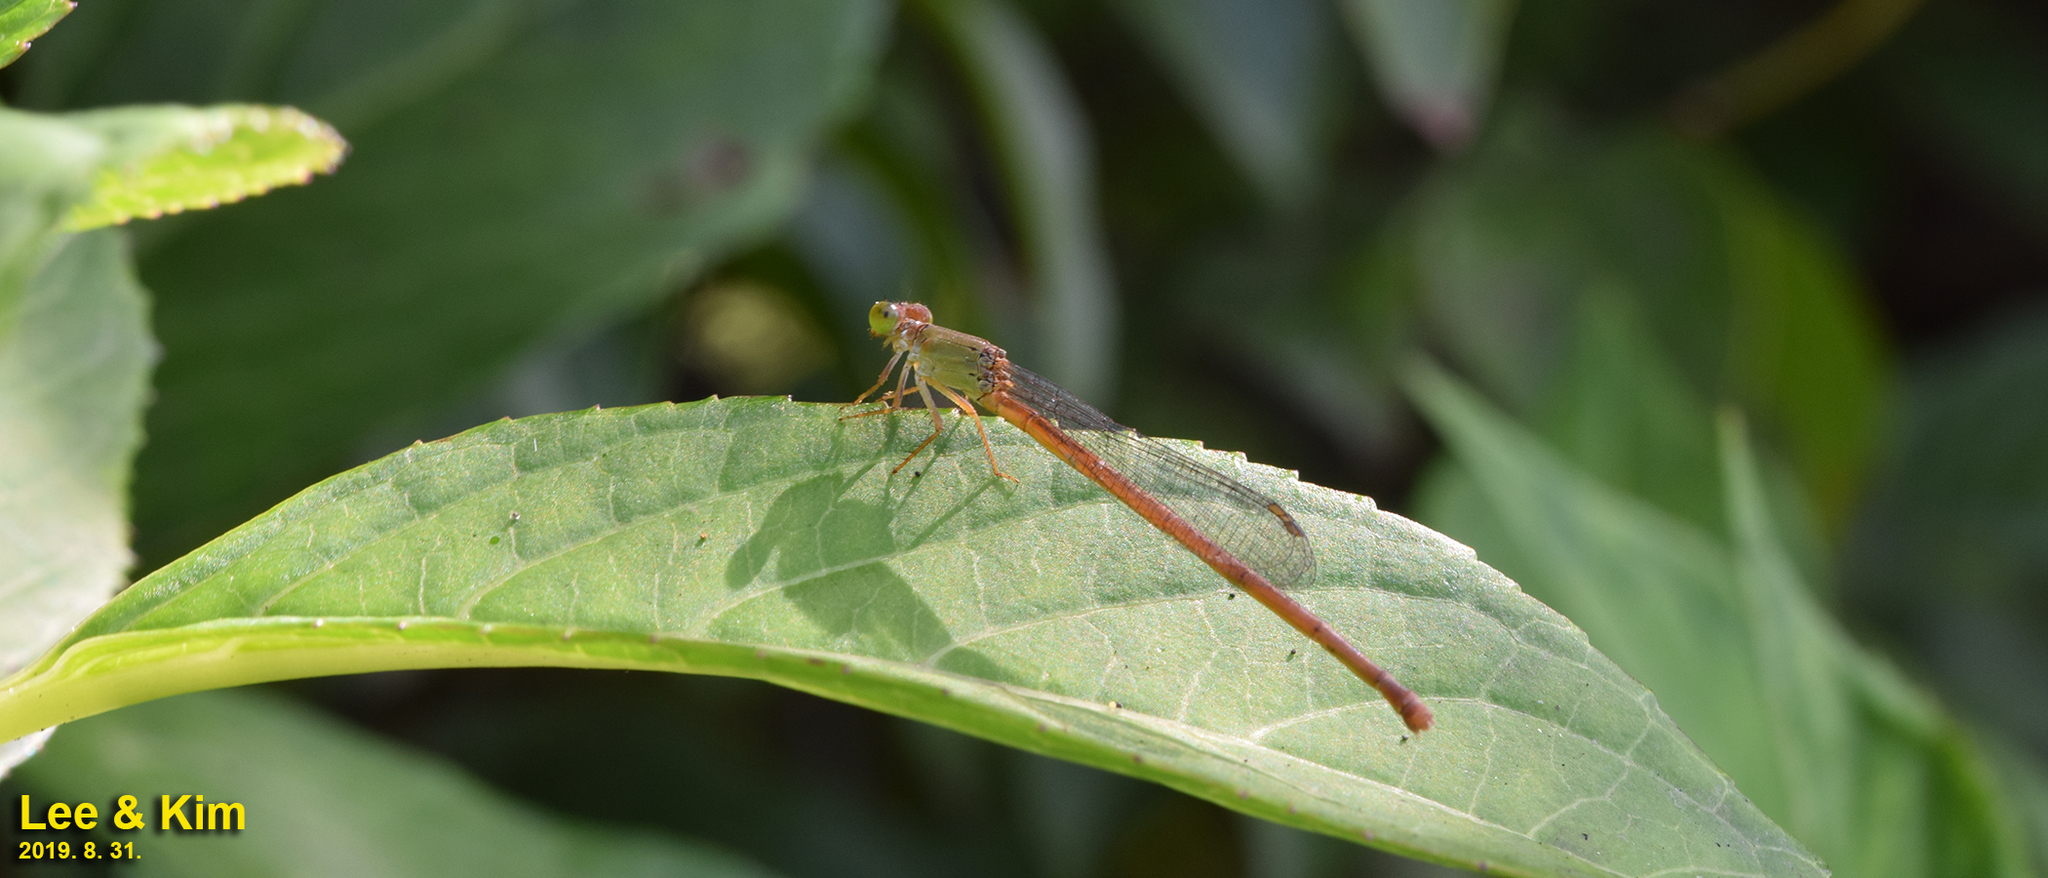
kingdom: Animalia
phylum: Arthropoda
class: Insecta
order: Odonata
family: Coenagrionidae
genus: Ceriagrion
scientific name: Ceriagrion nipponicum
